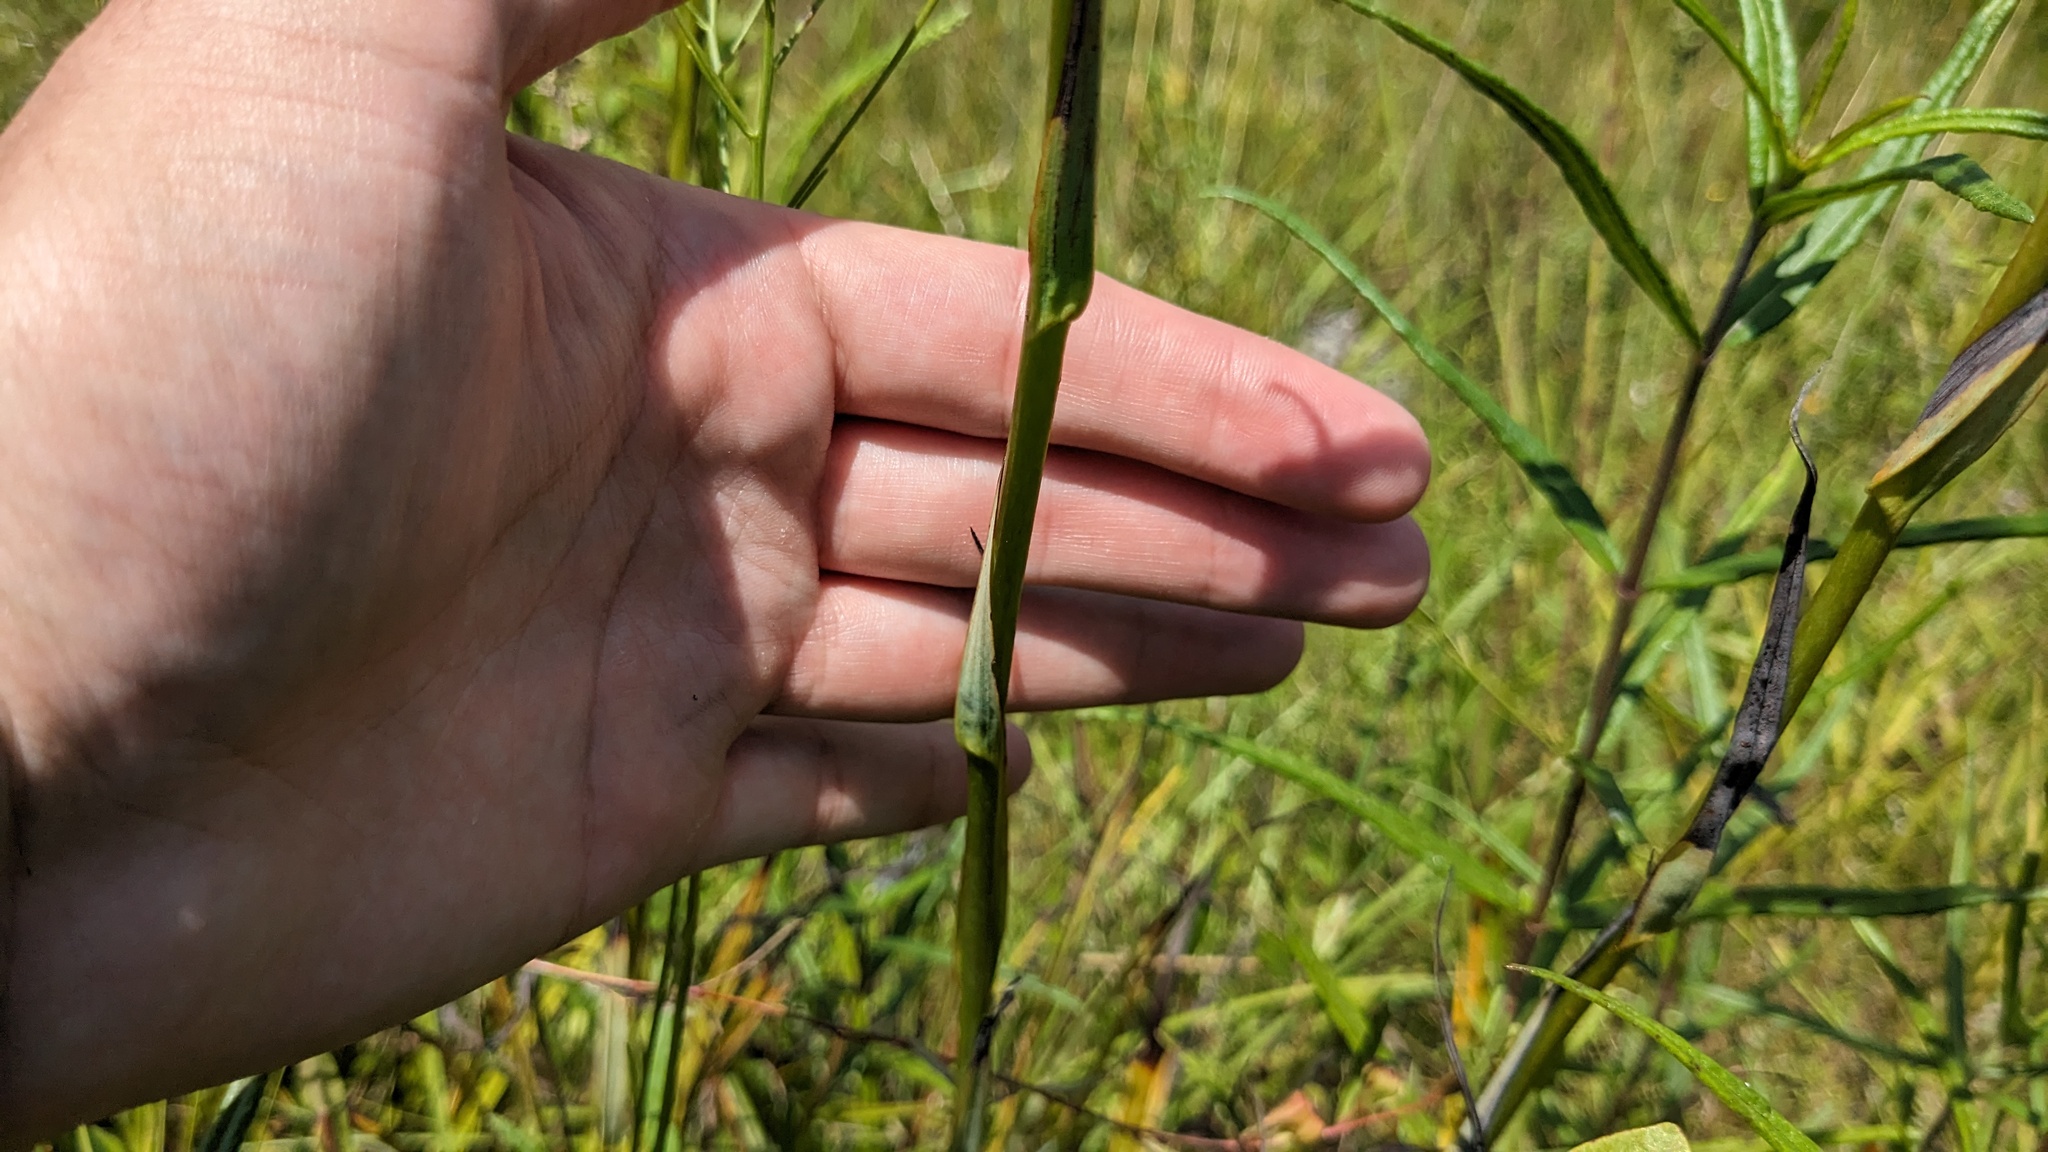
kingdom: Plantae
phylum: Tracheophyta
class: Liliopsida
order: Liliales
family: Melanthiaceae
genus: Zigadenus
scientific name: Zigadenus glaberrimus
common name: Sandbog death camas
